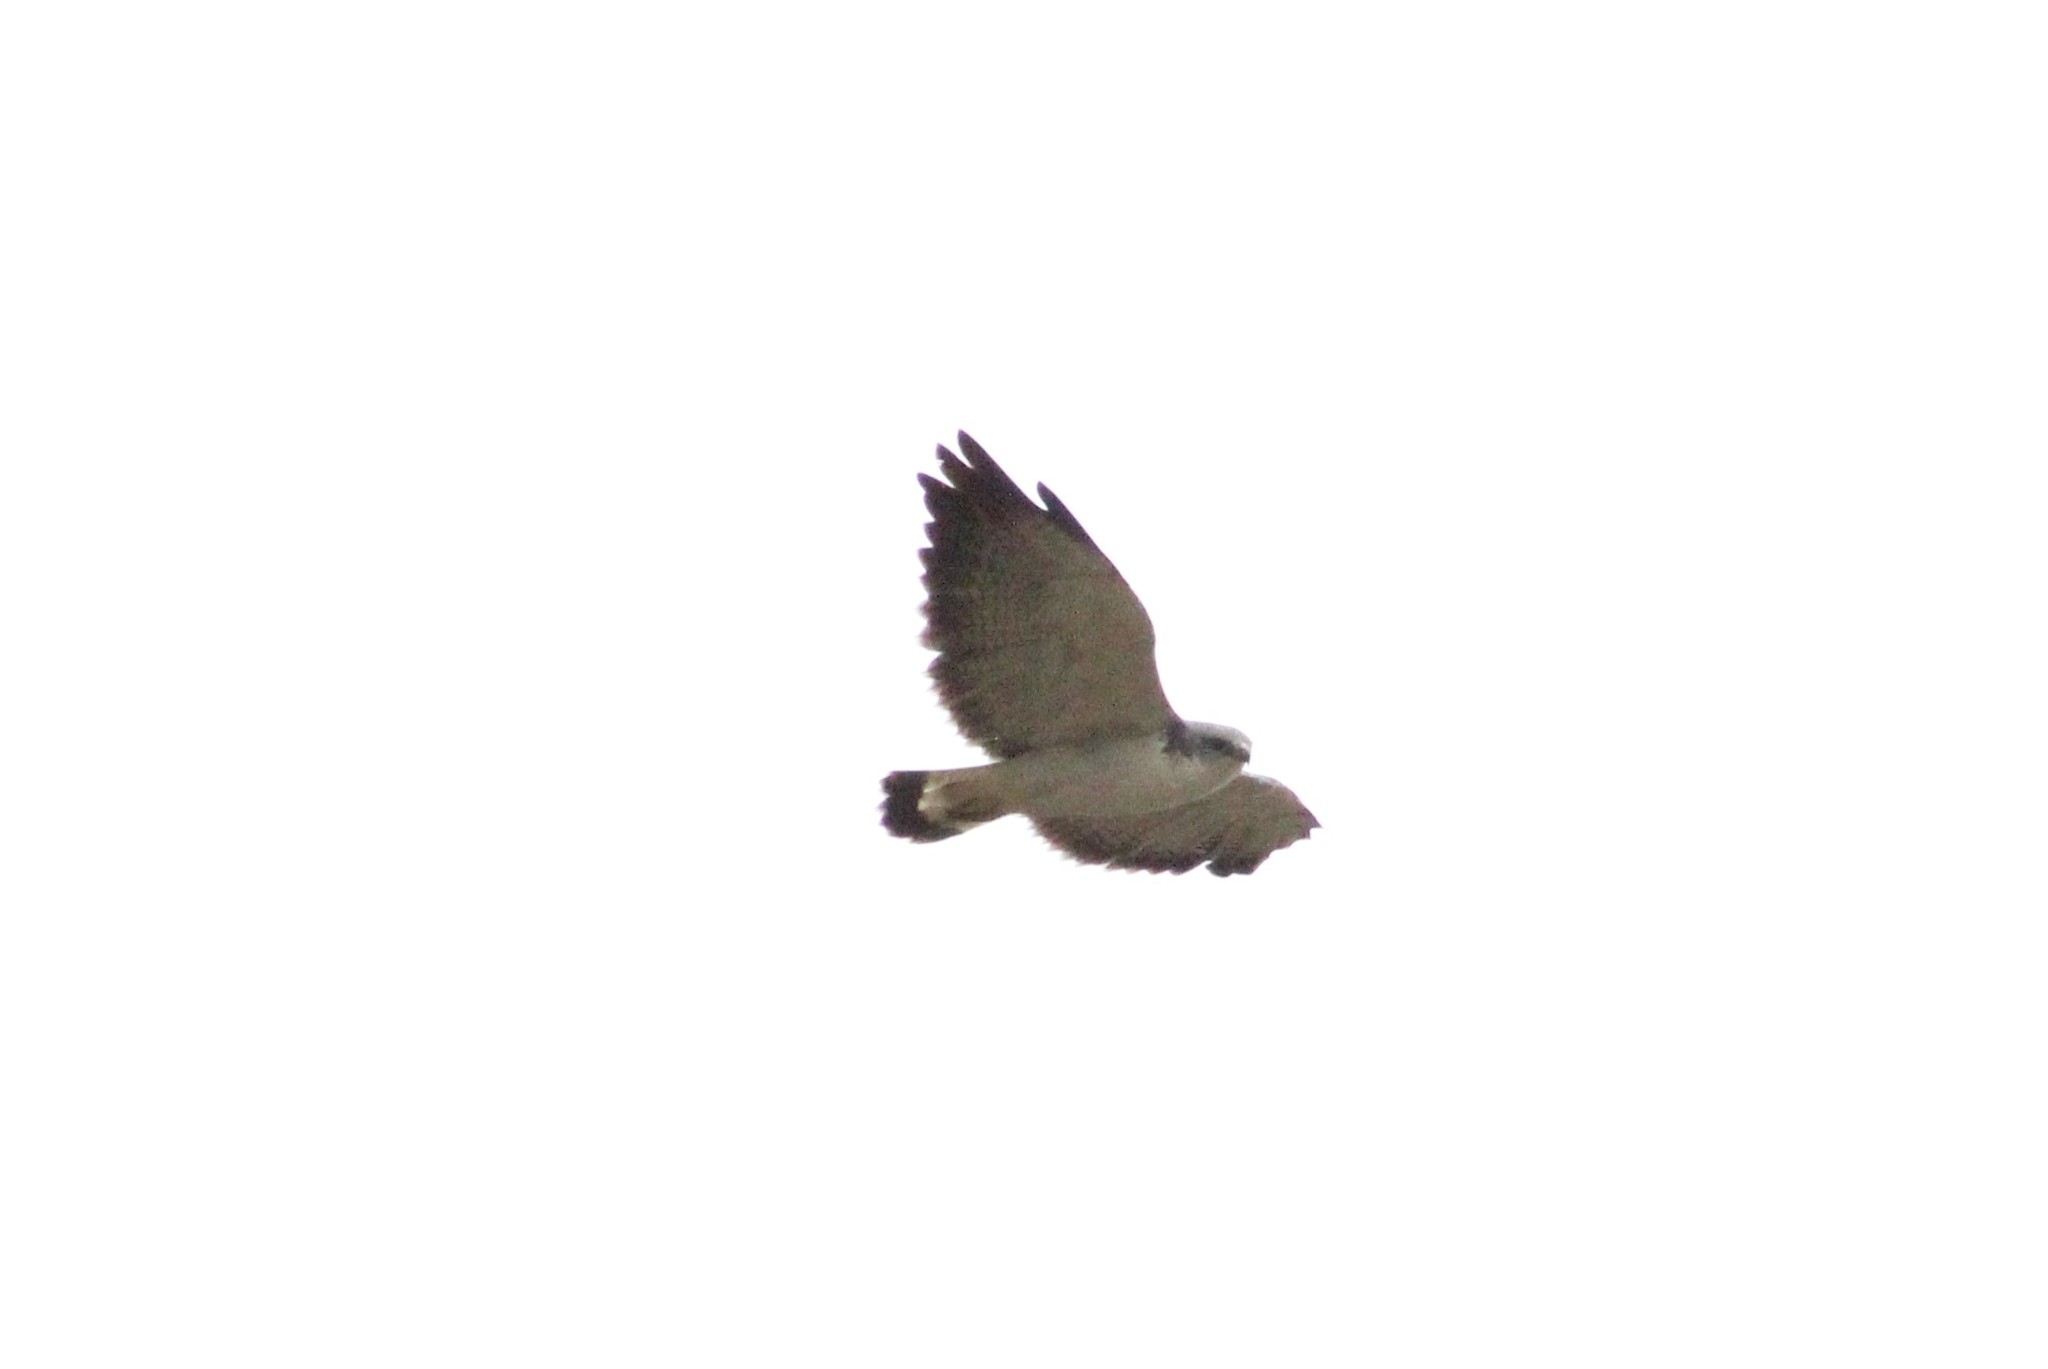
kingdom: Animalia
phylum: Chordata
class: Aves
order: Accipitriformes
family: Accipitridae
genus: Buteo
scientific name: Buteo polyosoma
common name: Variable hawk
